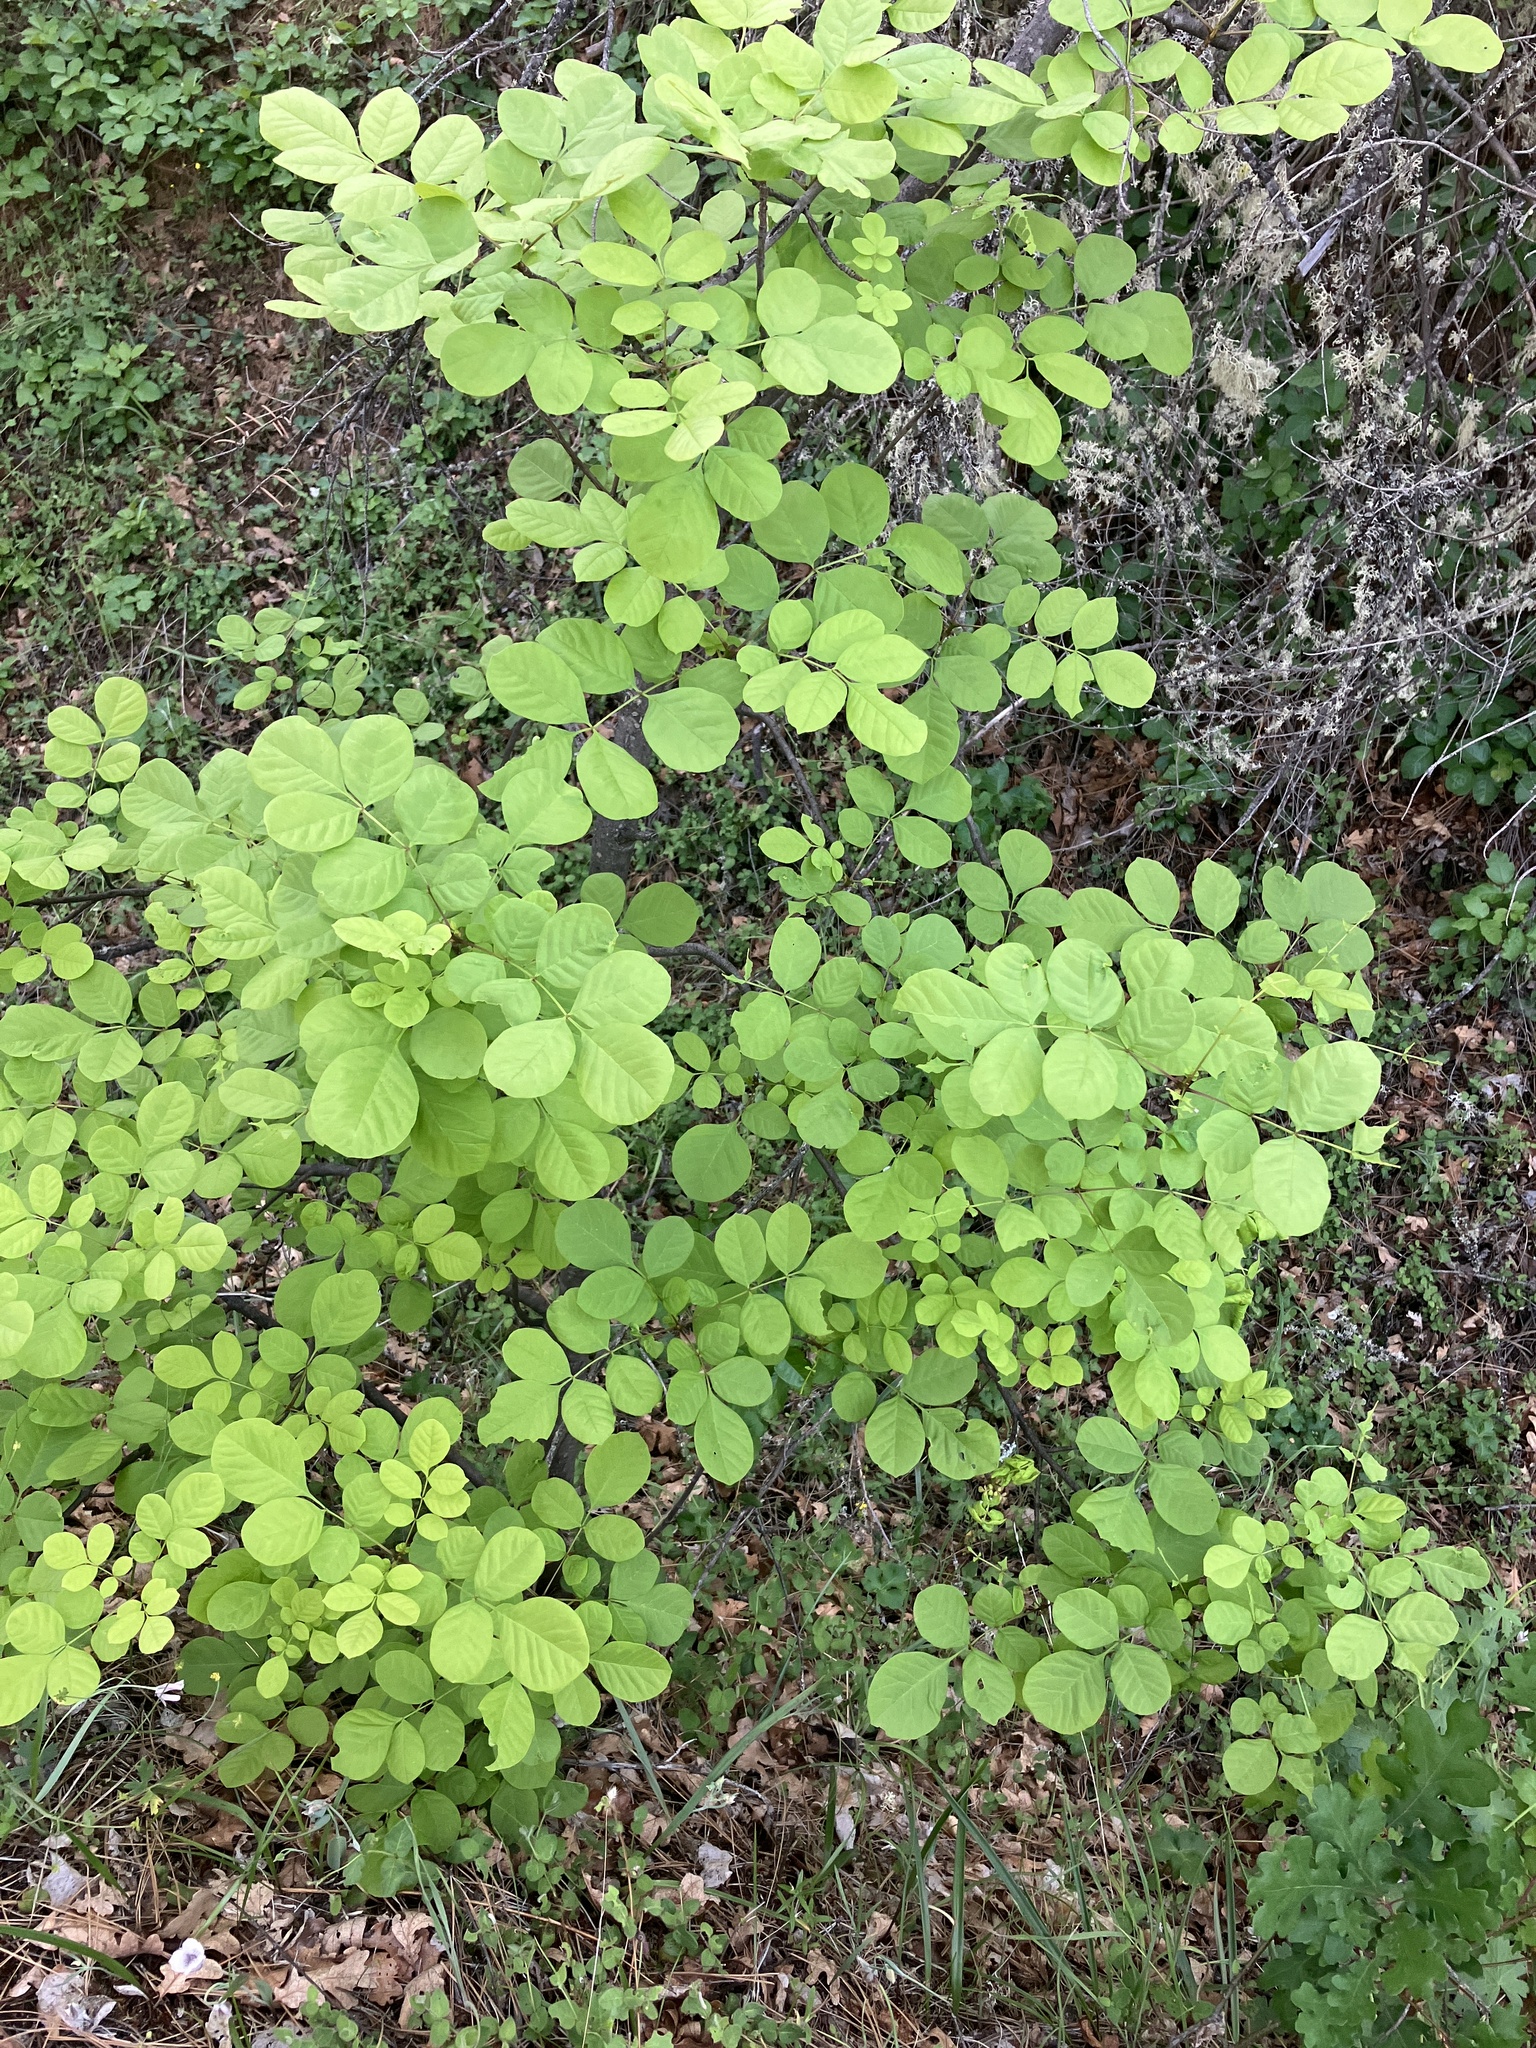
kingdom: Plantae
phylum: Tracheophyta
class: Magnoliopsida
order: Lamiales
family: Oleaceae
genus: Fraxinus
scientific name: Fraxinus latifolia
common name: Oregon ash
